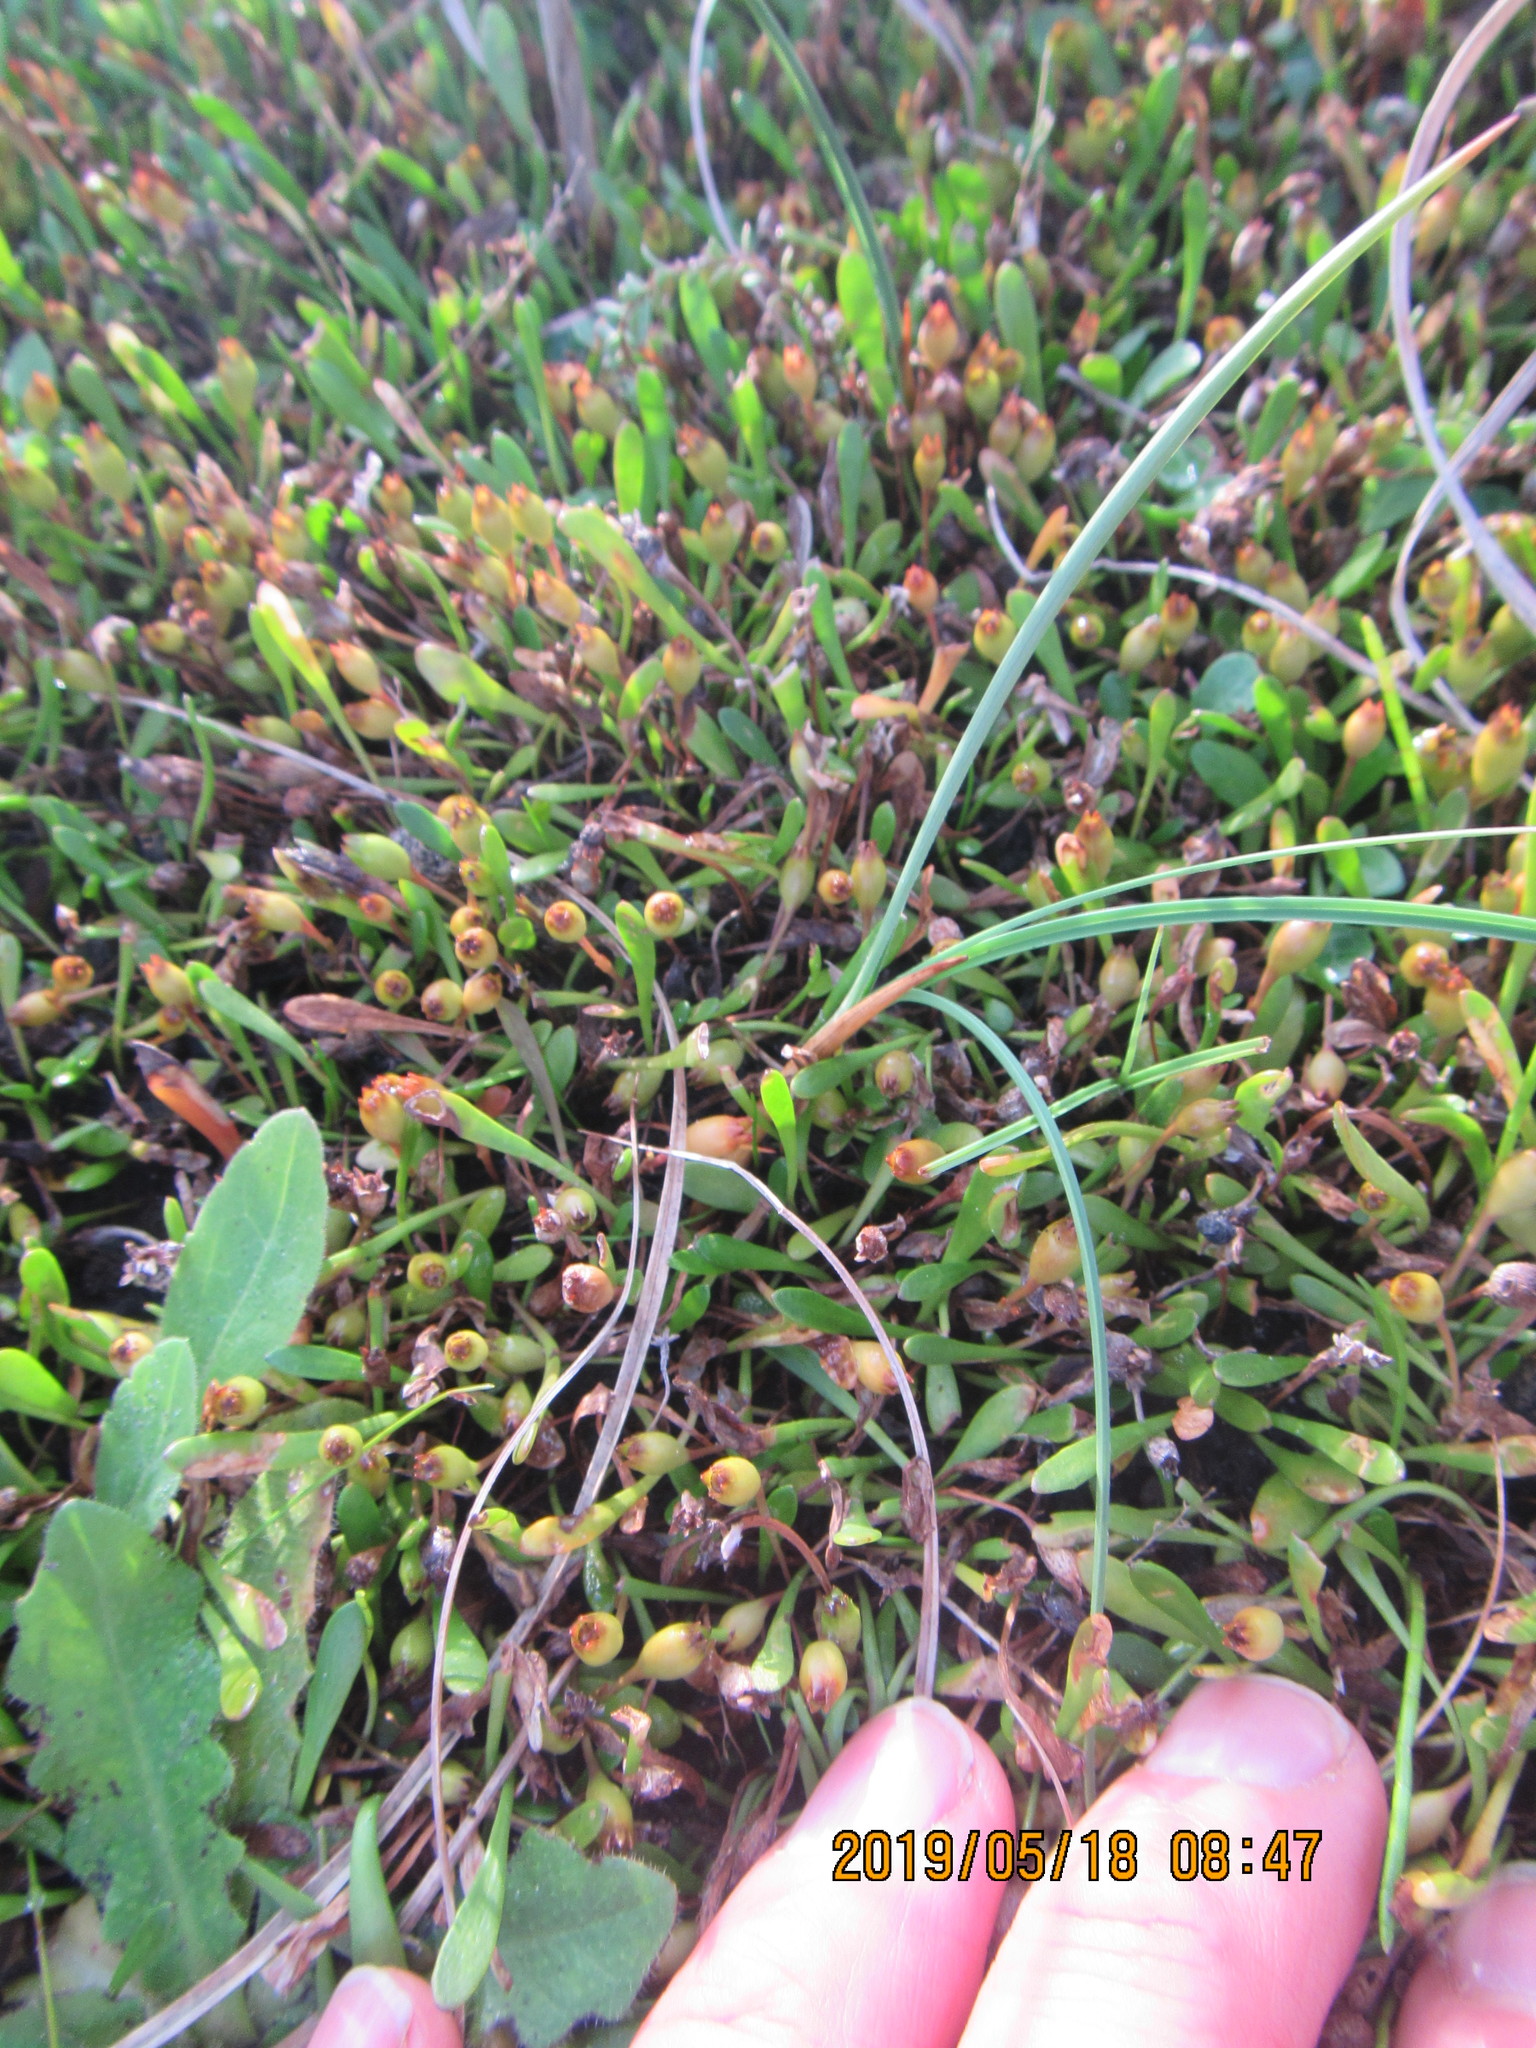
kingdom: Plantae
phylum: Tracheophyta
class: Magnoliopsida
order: Asterales
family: Goodeniaceae
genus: Goodenia
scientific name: Goodenia radicans
